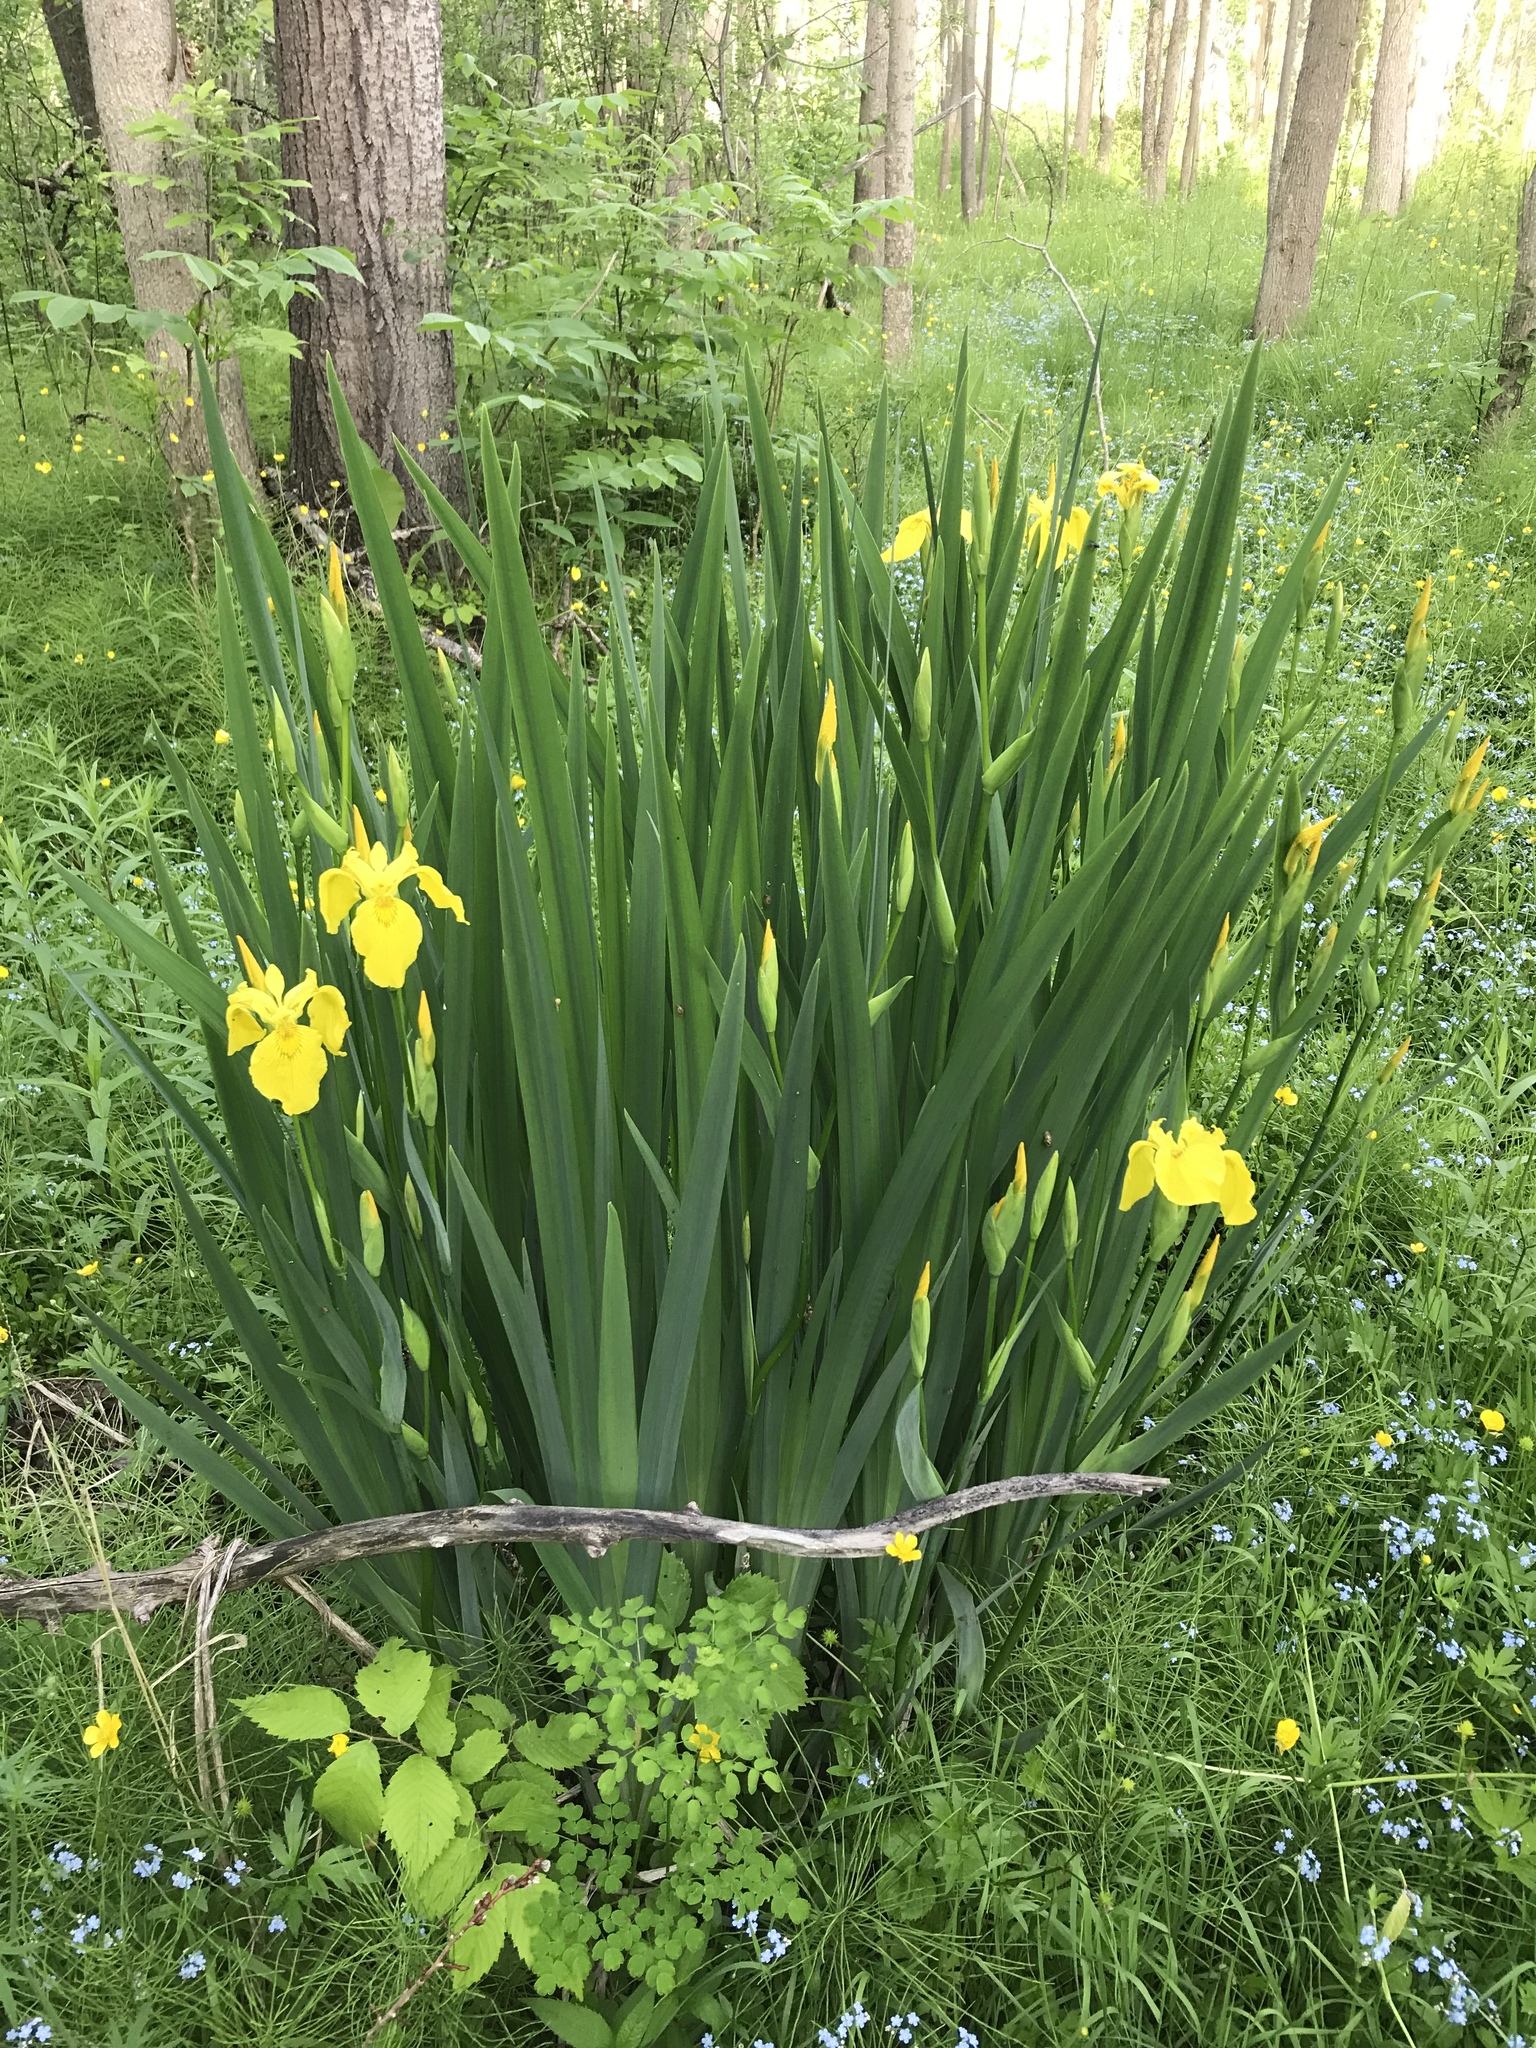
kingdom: Plantae
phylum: Tracheophyta
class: Liliopsida
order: Asparagales
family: Iridaceae
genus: Iris
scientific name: Iris pseudacorus
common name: Yellow flag
